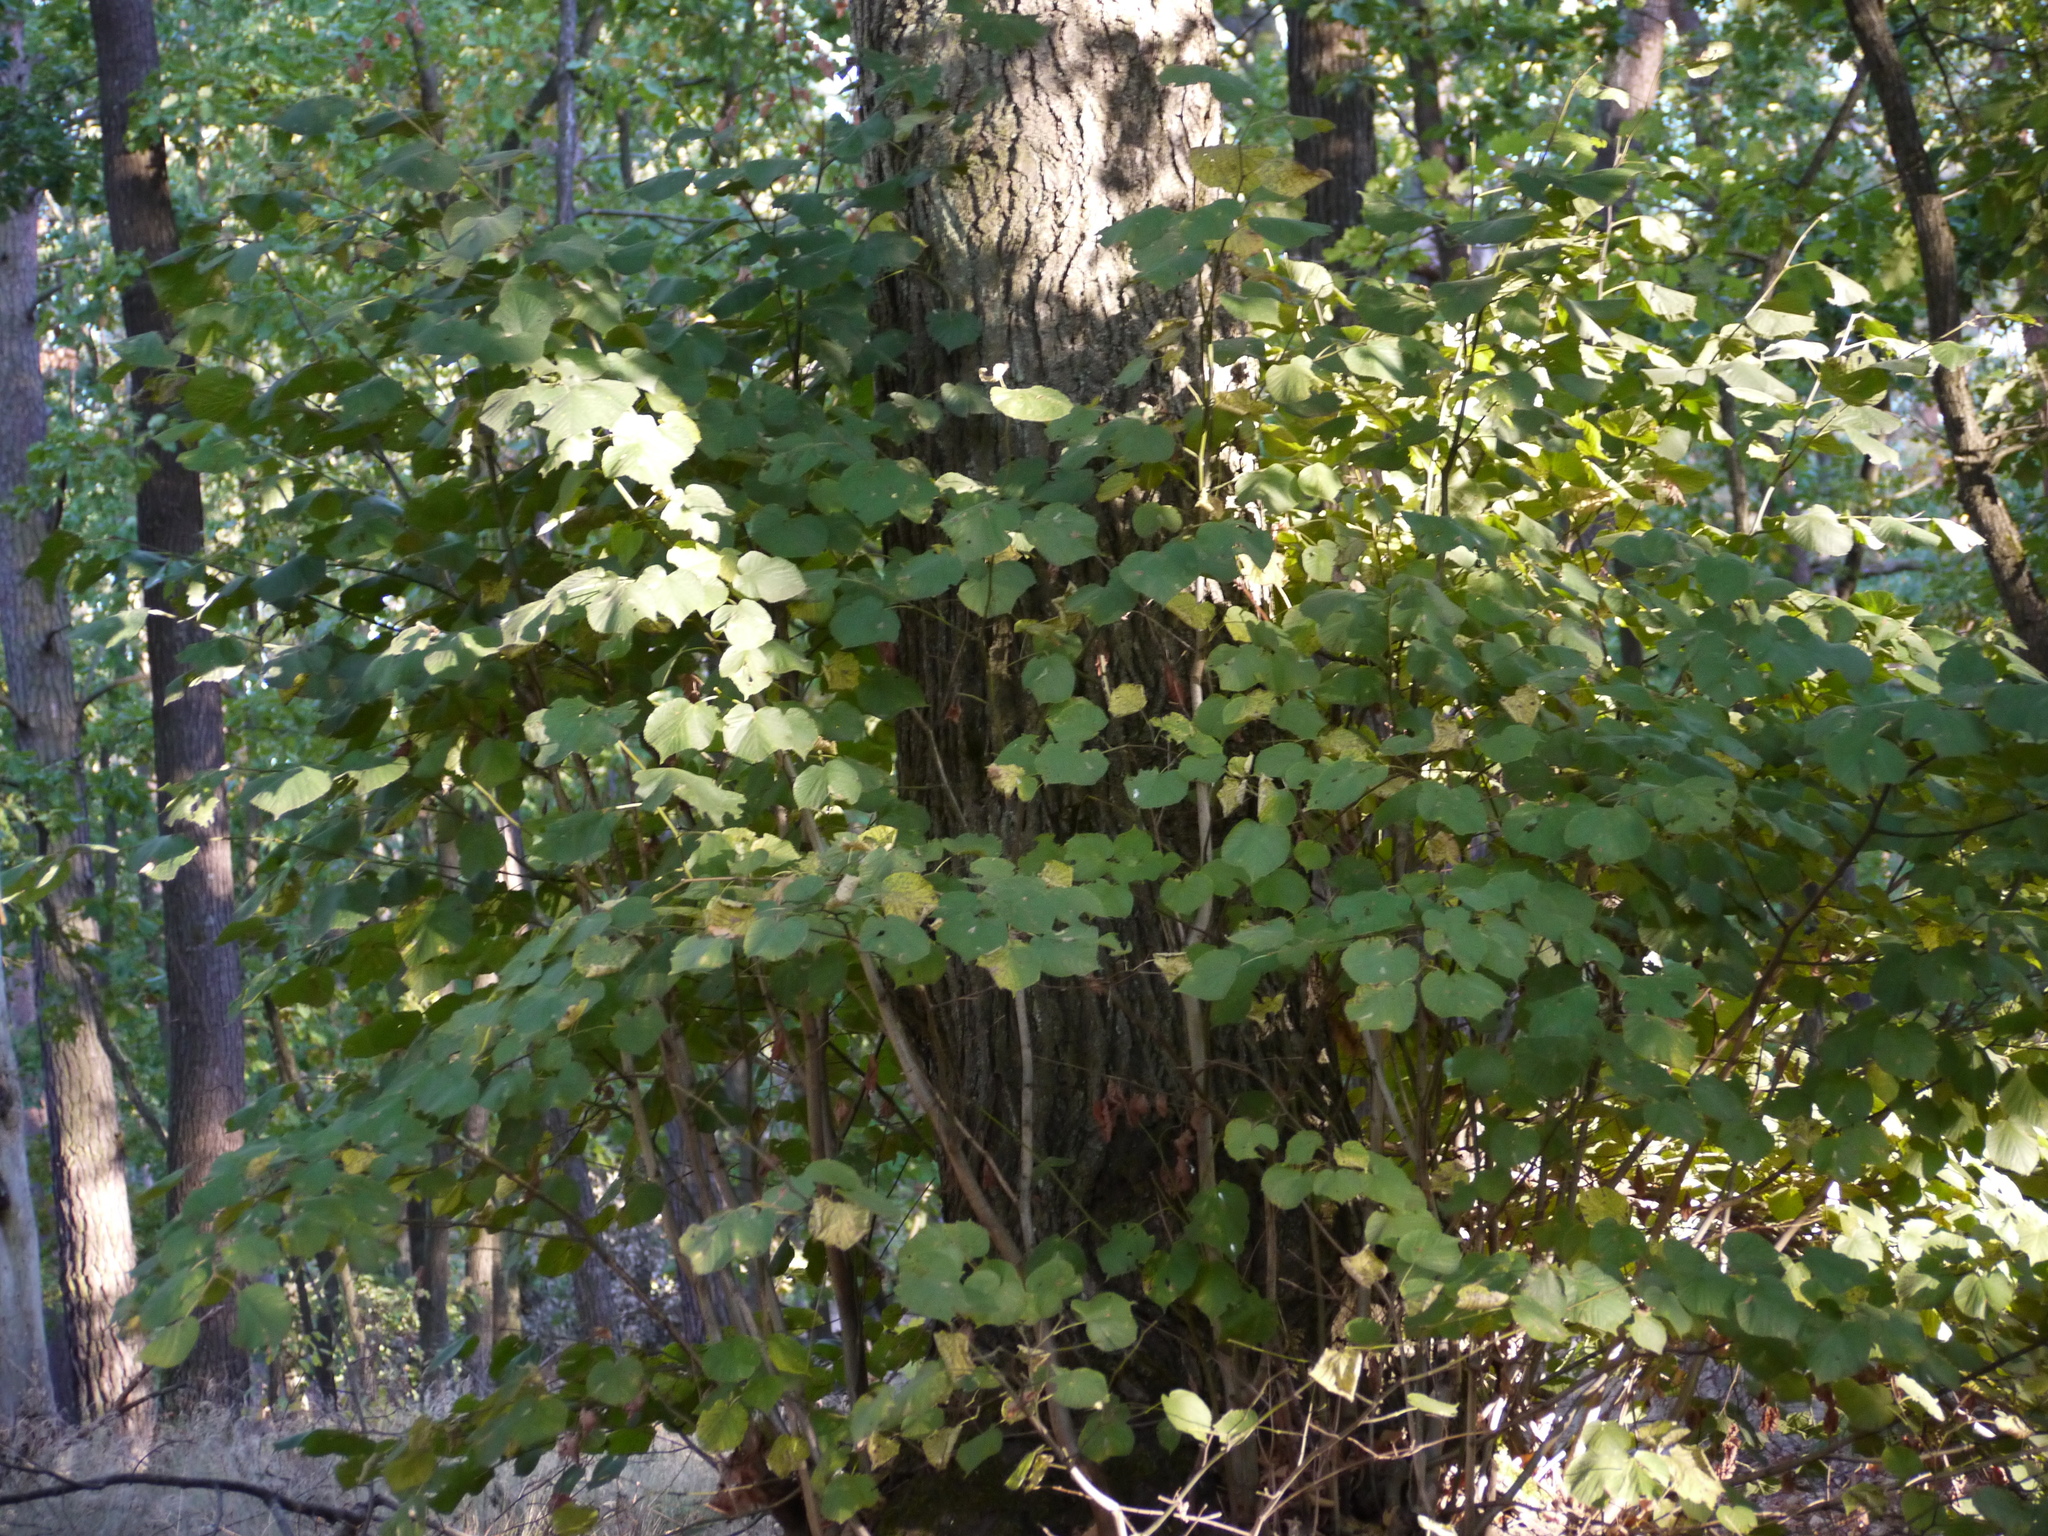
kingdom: Plantae
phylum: Tracheophyta
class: Magnoliopsida
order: Malvales
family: Malvaceae
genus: Tilia
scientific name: Tilia platyphyllos
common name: Large-leaved lime
